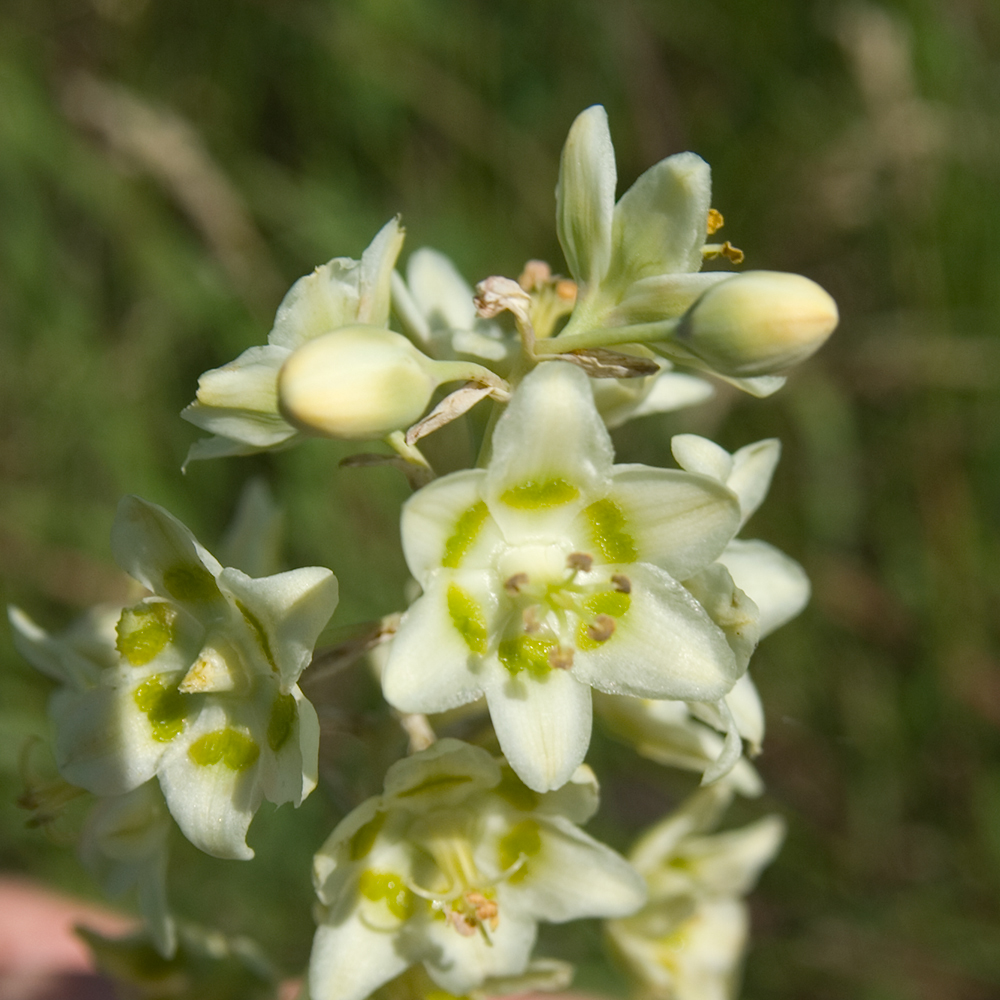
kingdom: Plantae
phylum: Tracheophyta
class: Liliopsida
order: Liliales
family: Melanthiaceae
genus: Anticlea
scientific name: Anticlea elegans
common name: Mountain death camas
